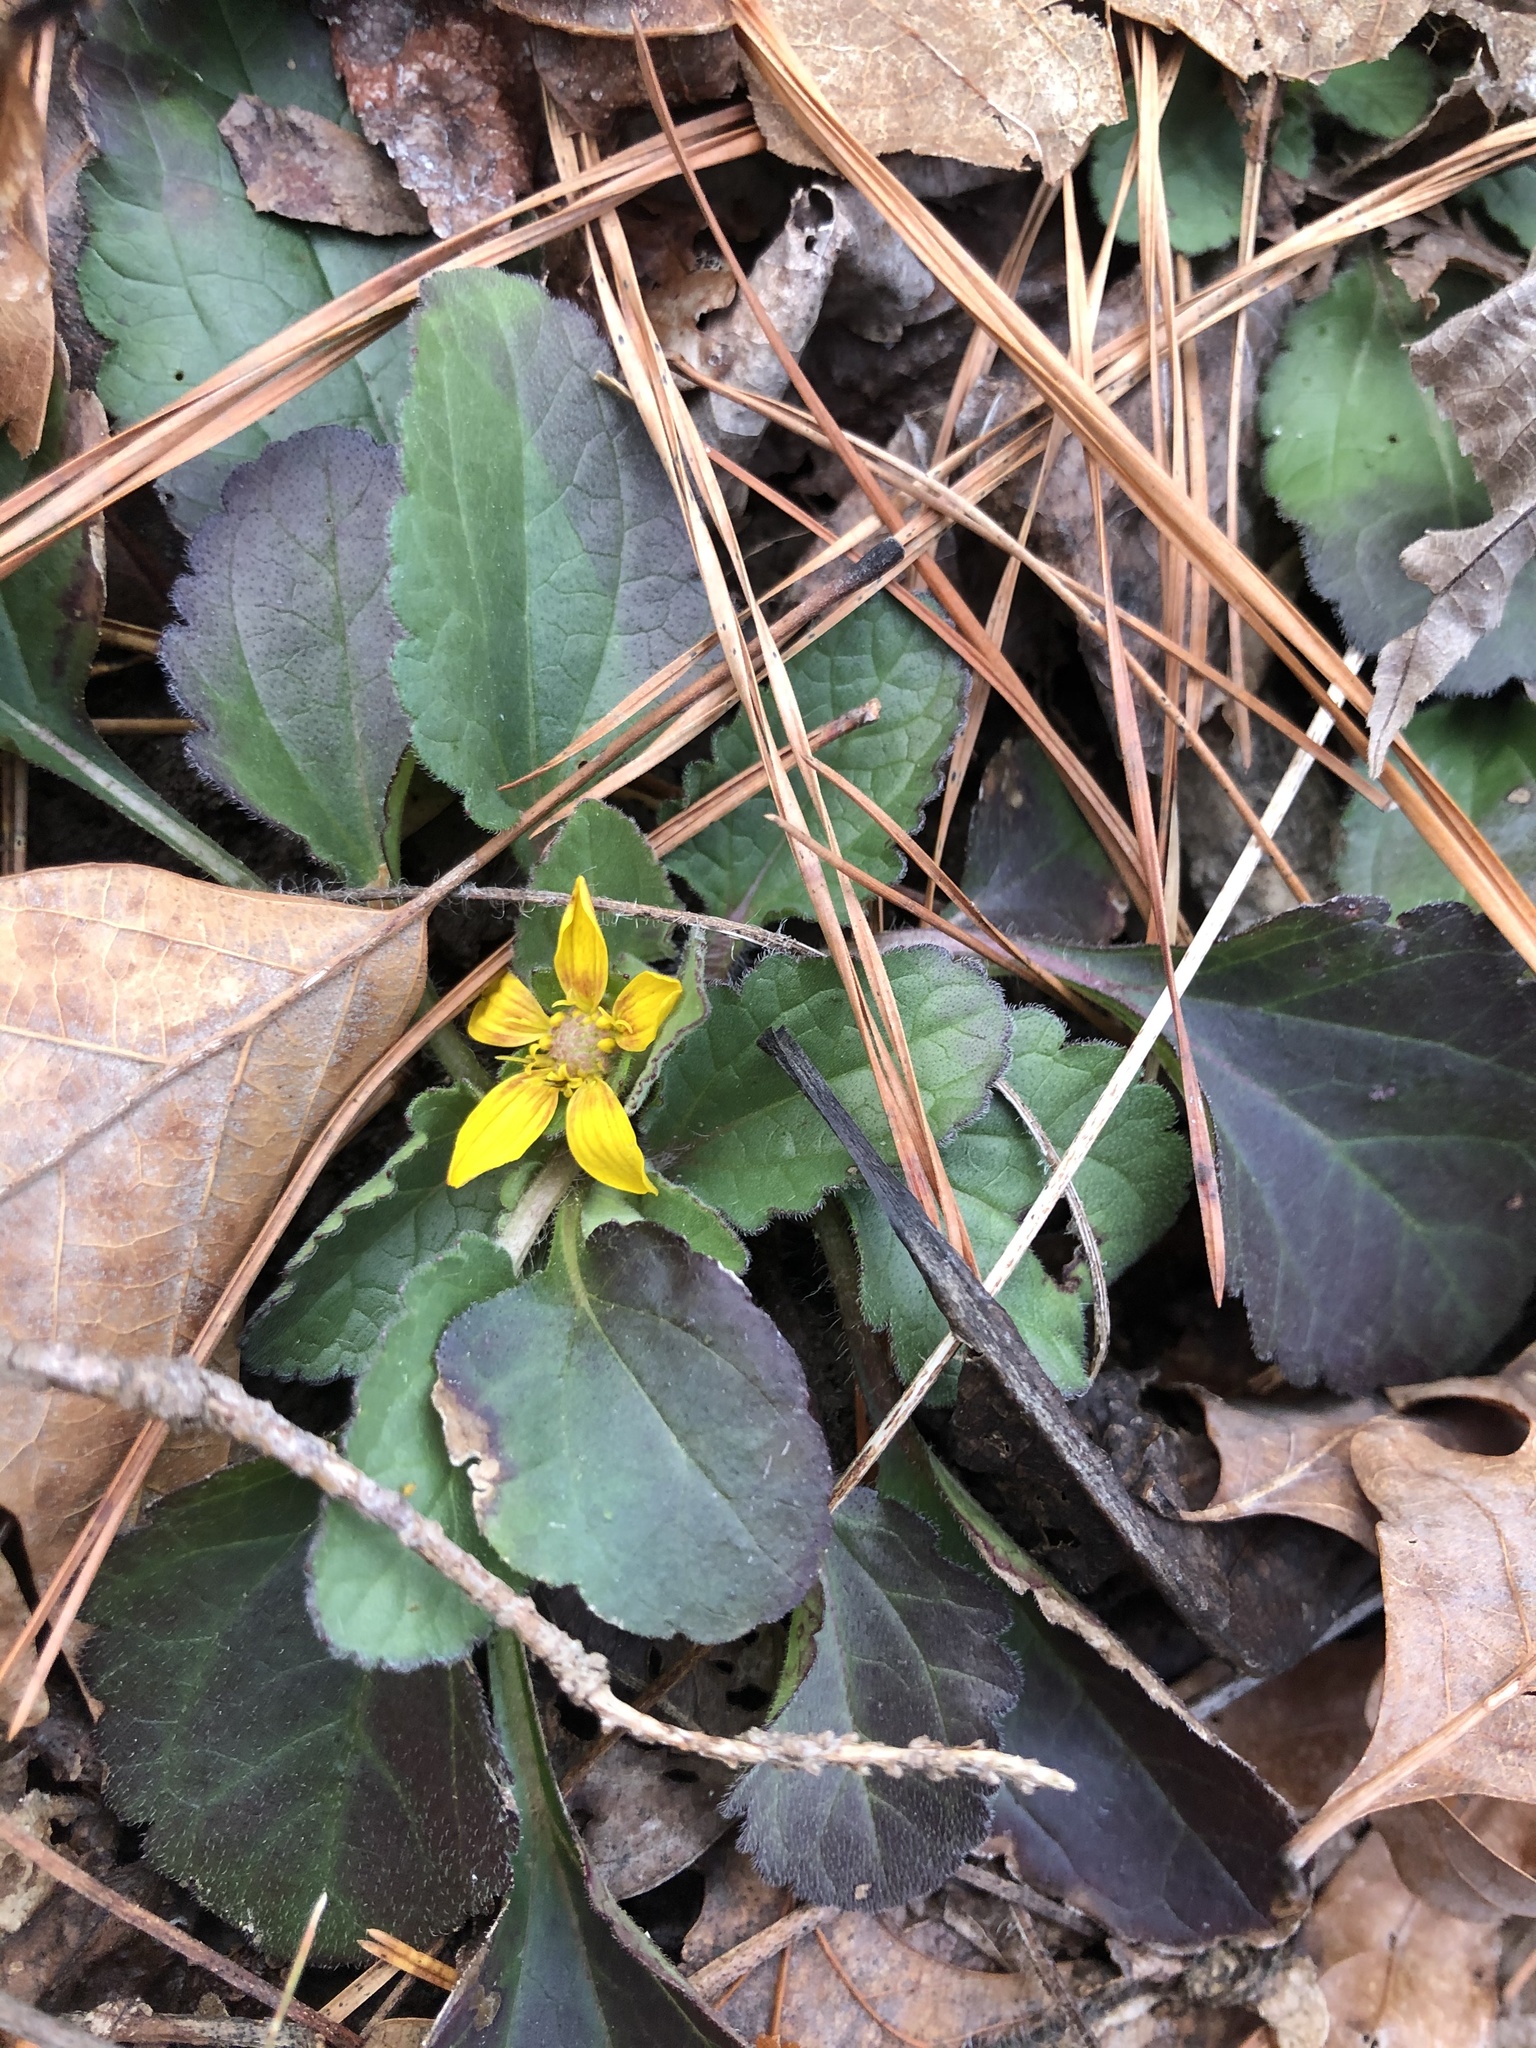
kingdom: Plantae
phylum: Tracheophyta
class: Magnoliopsida
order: Asterales
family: Asteraceae
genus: Chrysogonum
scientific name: Chrysogonum virginianum
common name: Golden-knee
